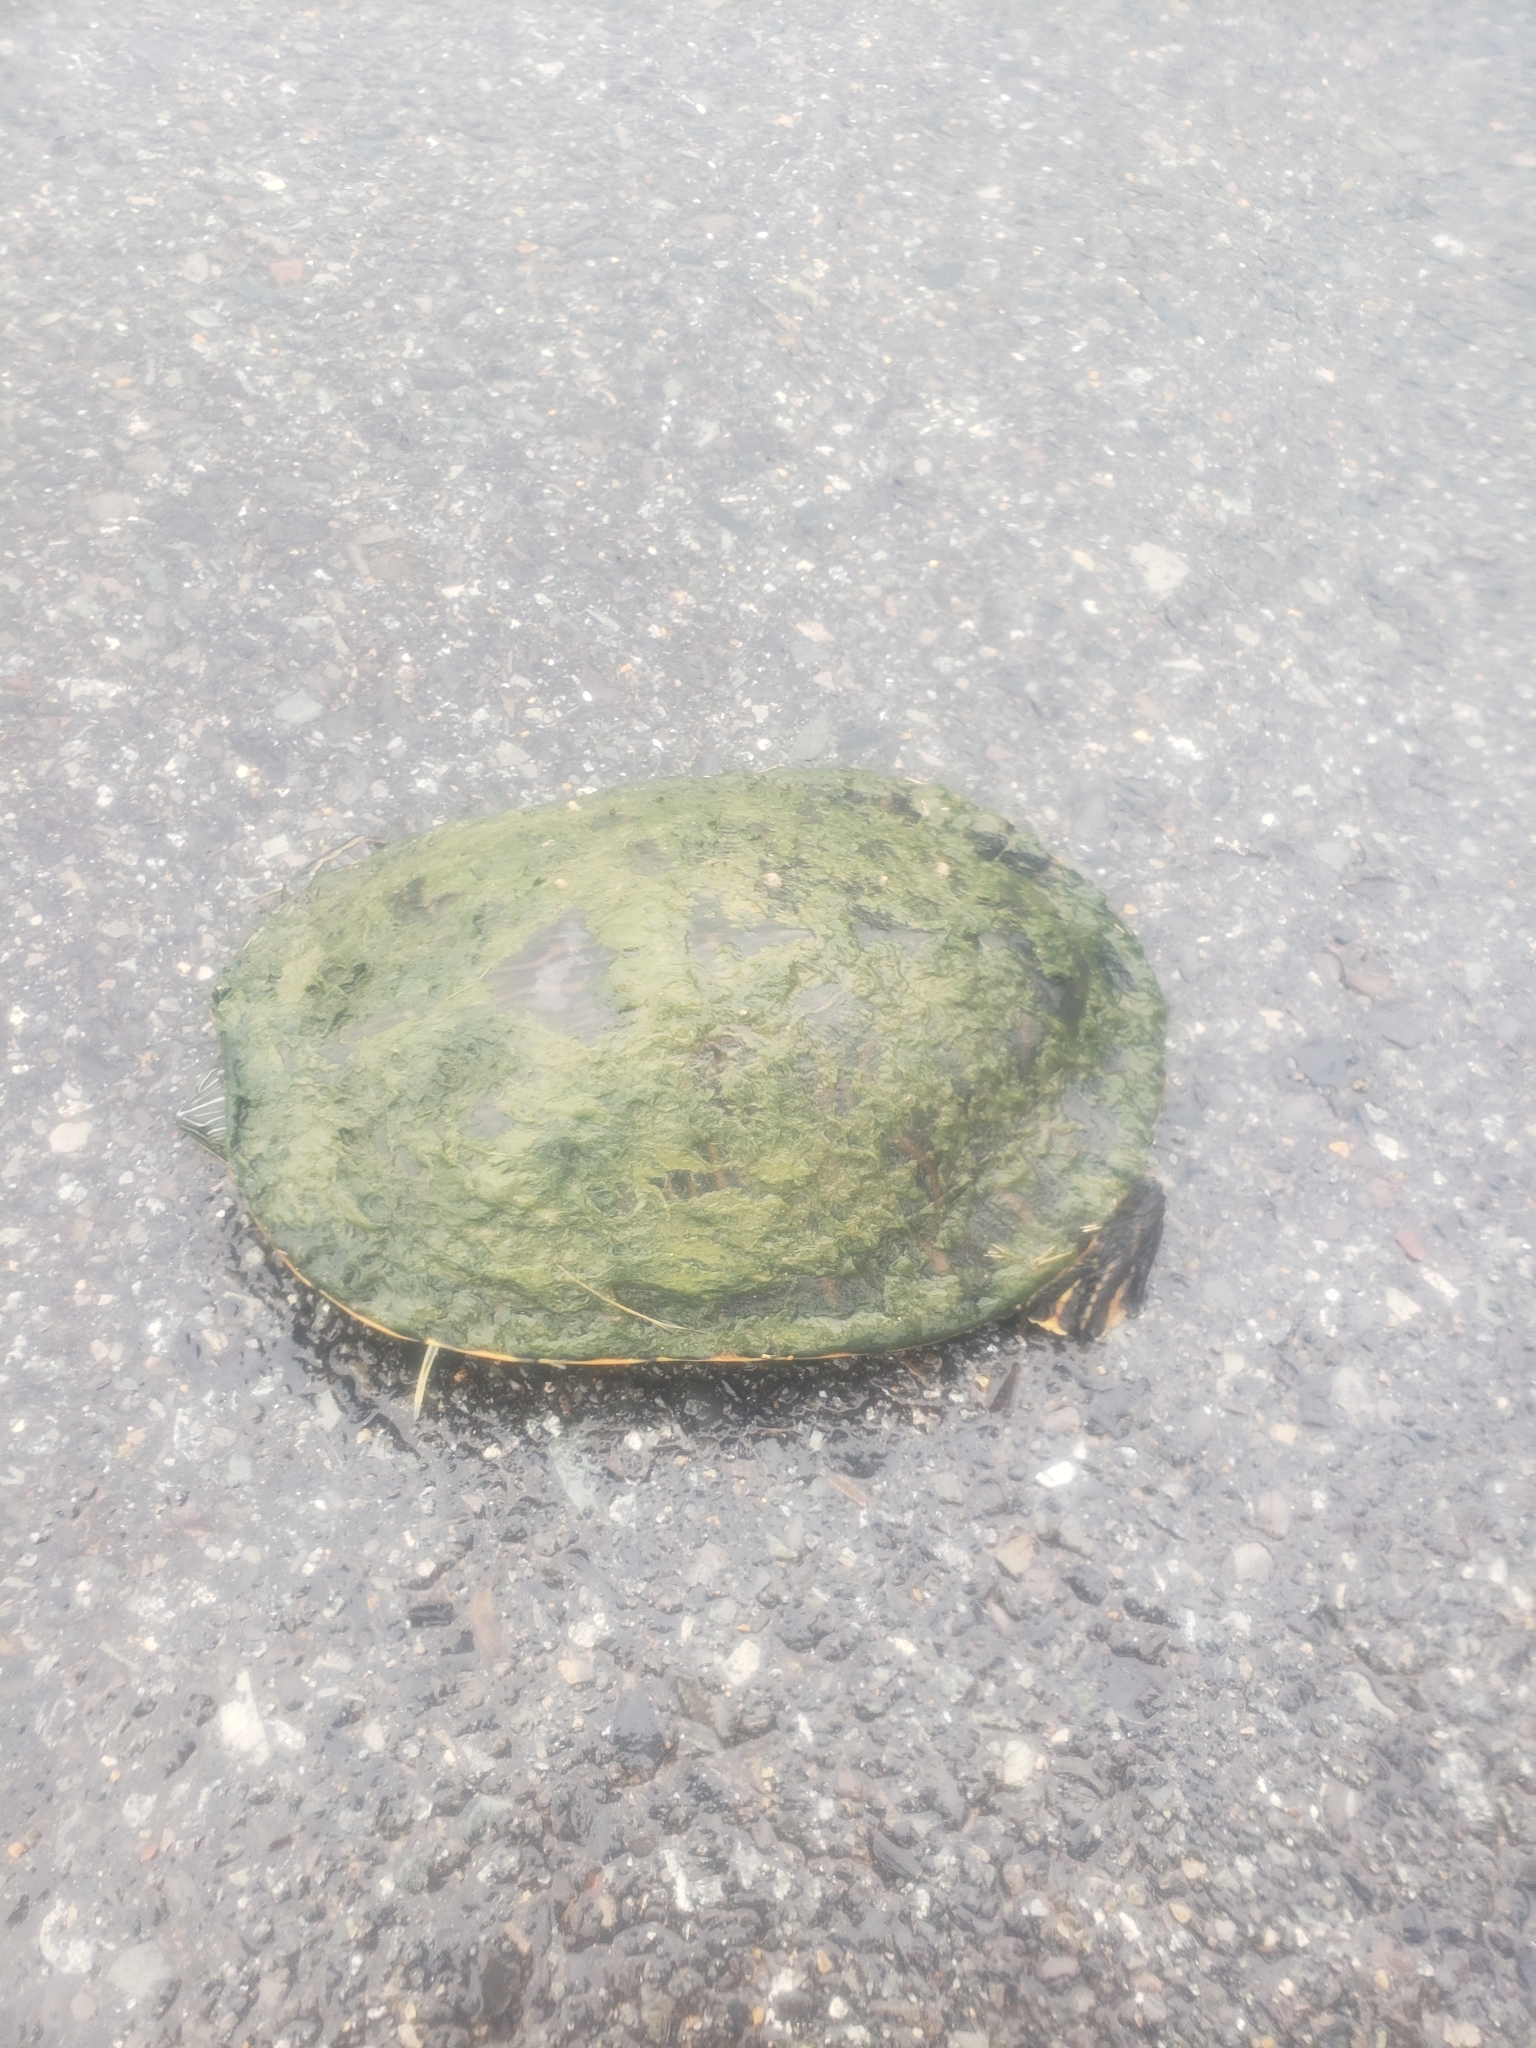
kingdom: Animalia
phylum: Chordata
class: Testudines
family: Emydidae
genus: Pseudemys
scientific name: Pseudemys concinna
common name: Eastern river cooter
